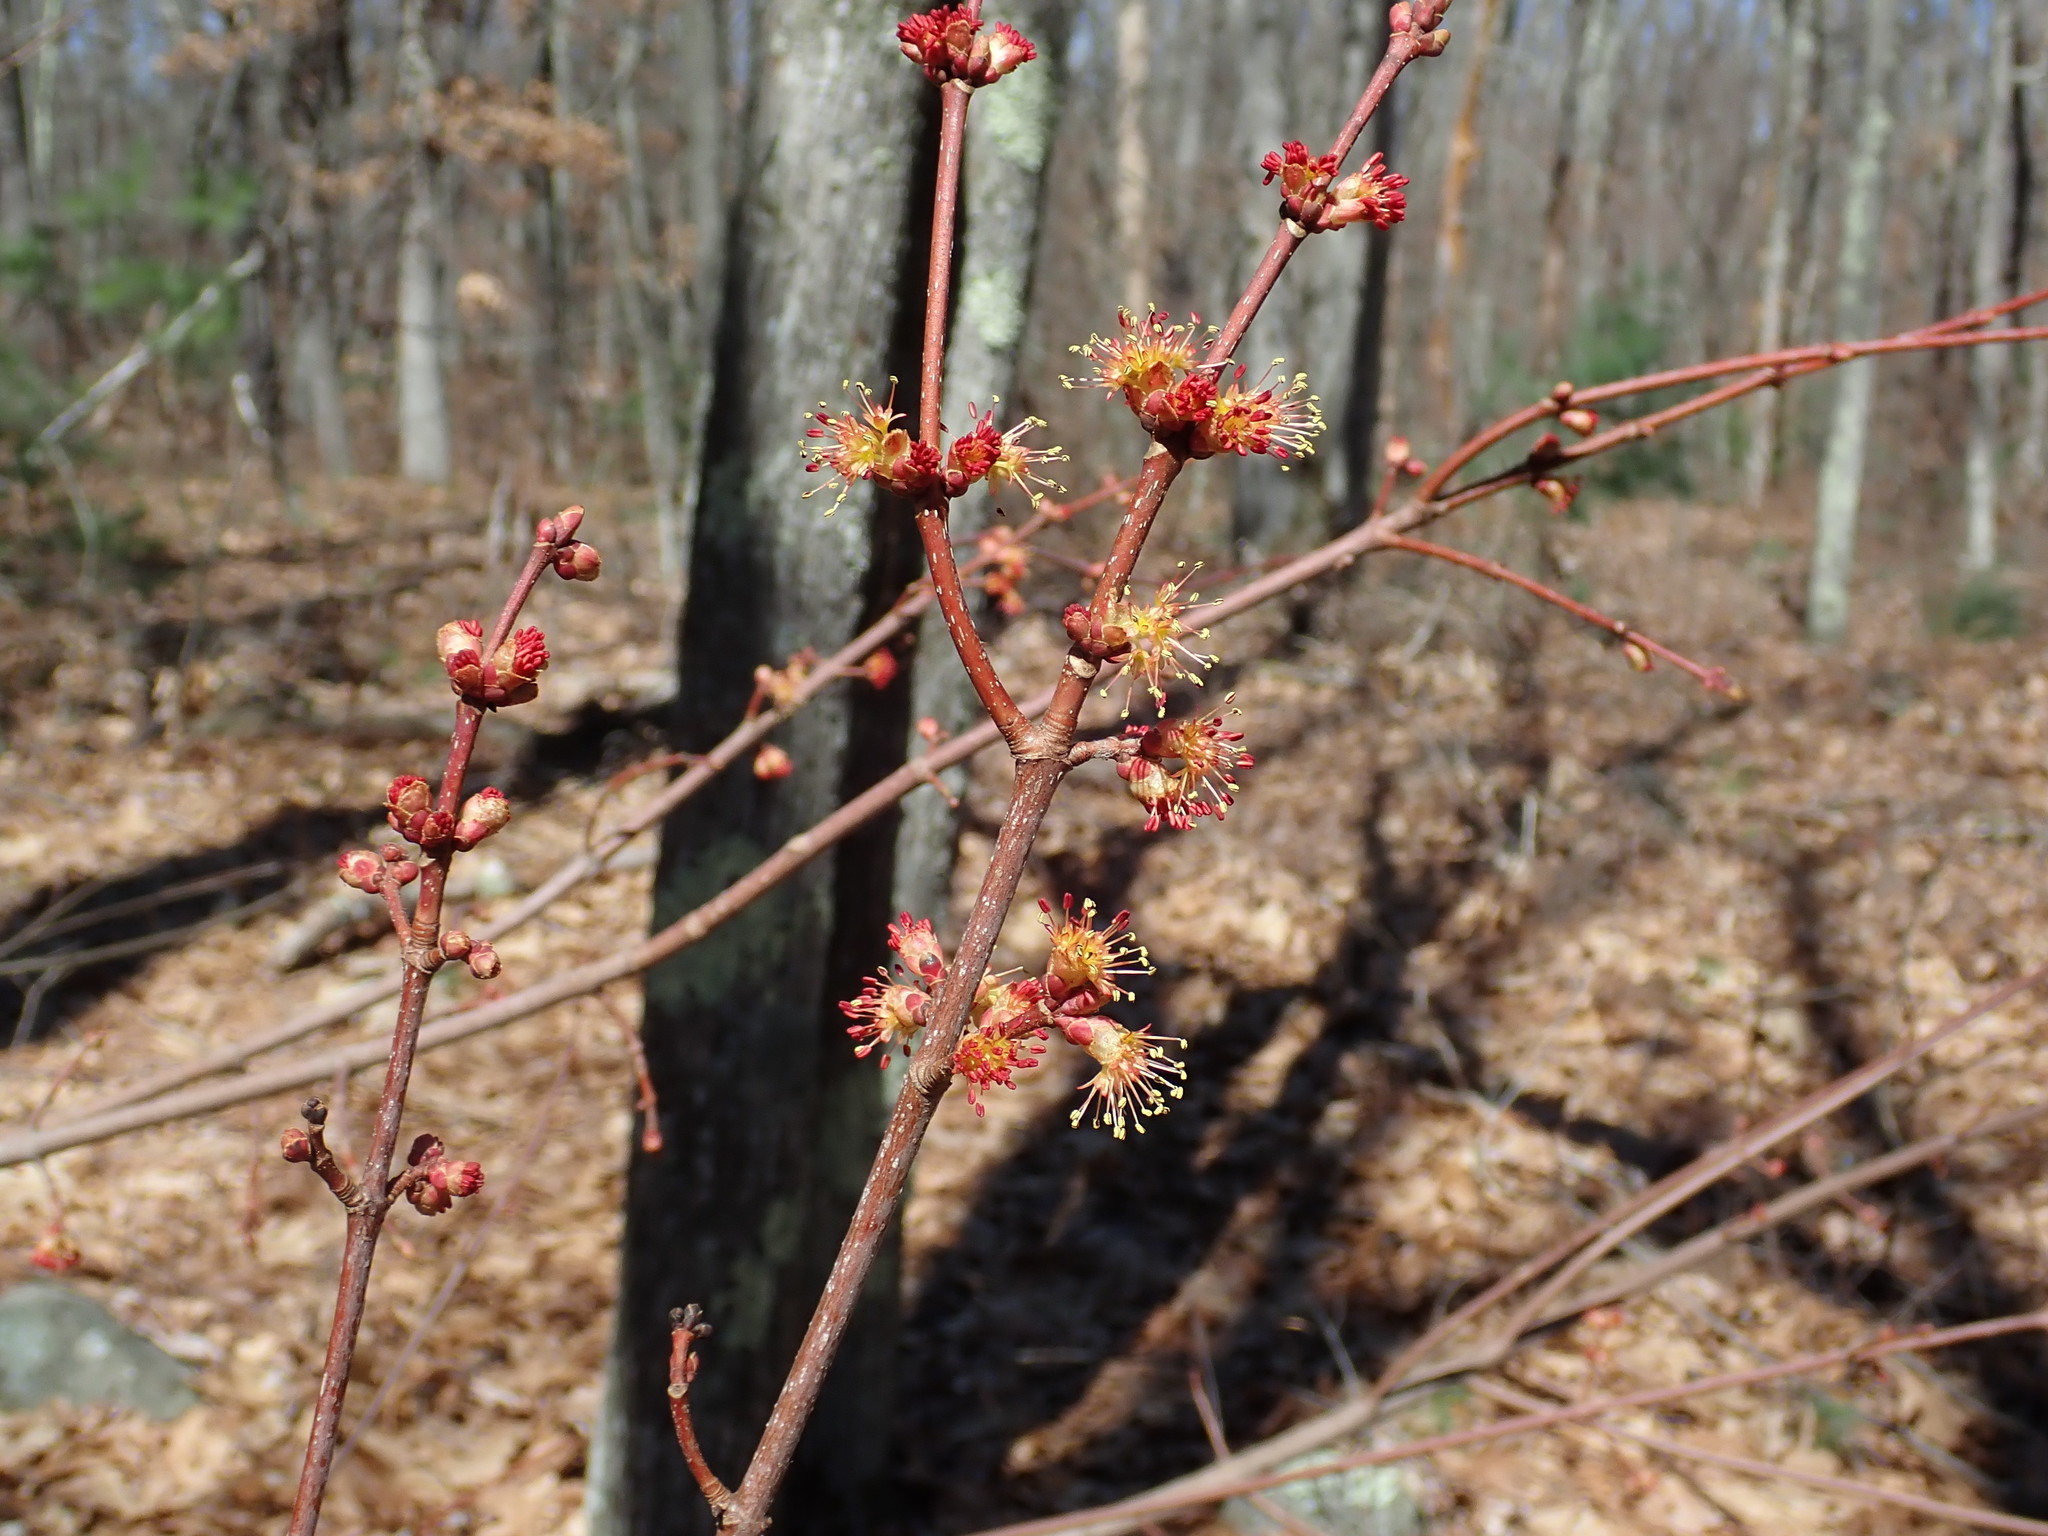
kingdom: Plantae
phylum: Tracheophyta
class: Magnoliopsida
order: Sapindales
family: Sapindaceae
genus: Acer
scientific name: Acer rubrum
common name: Red maple
